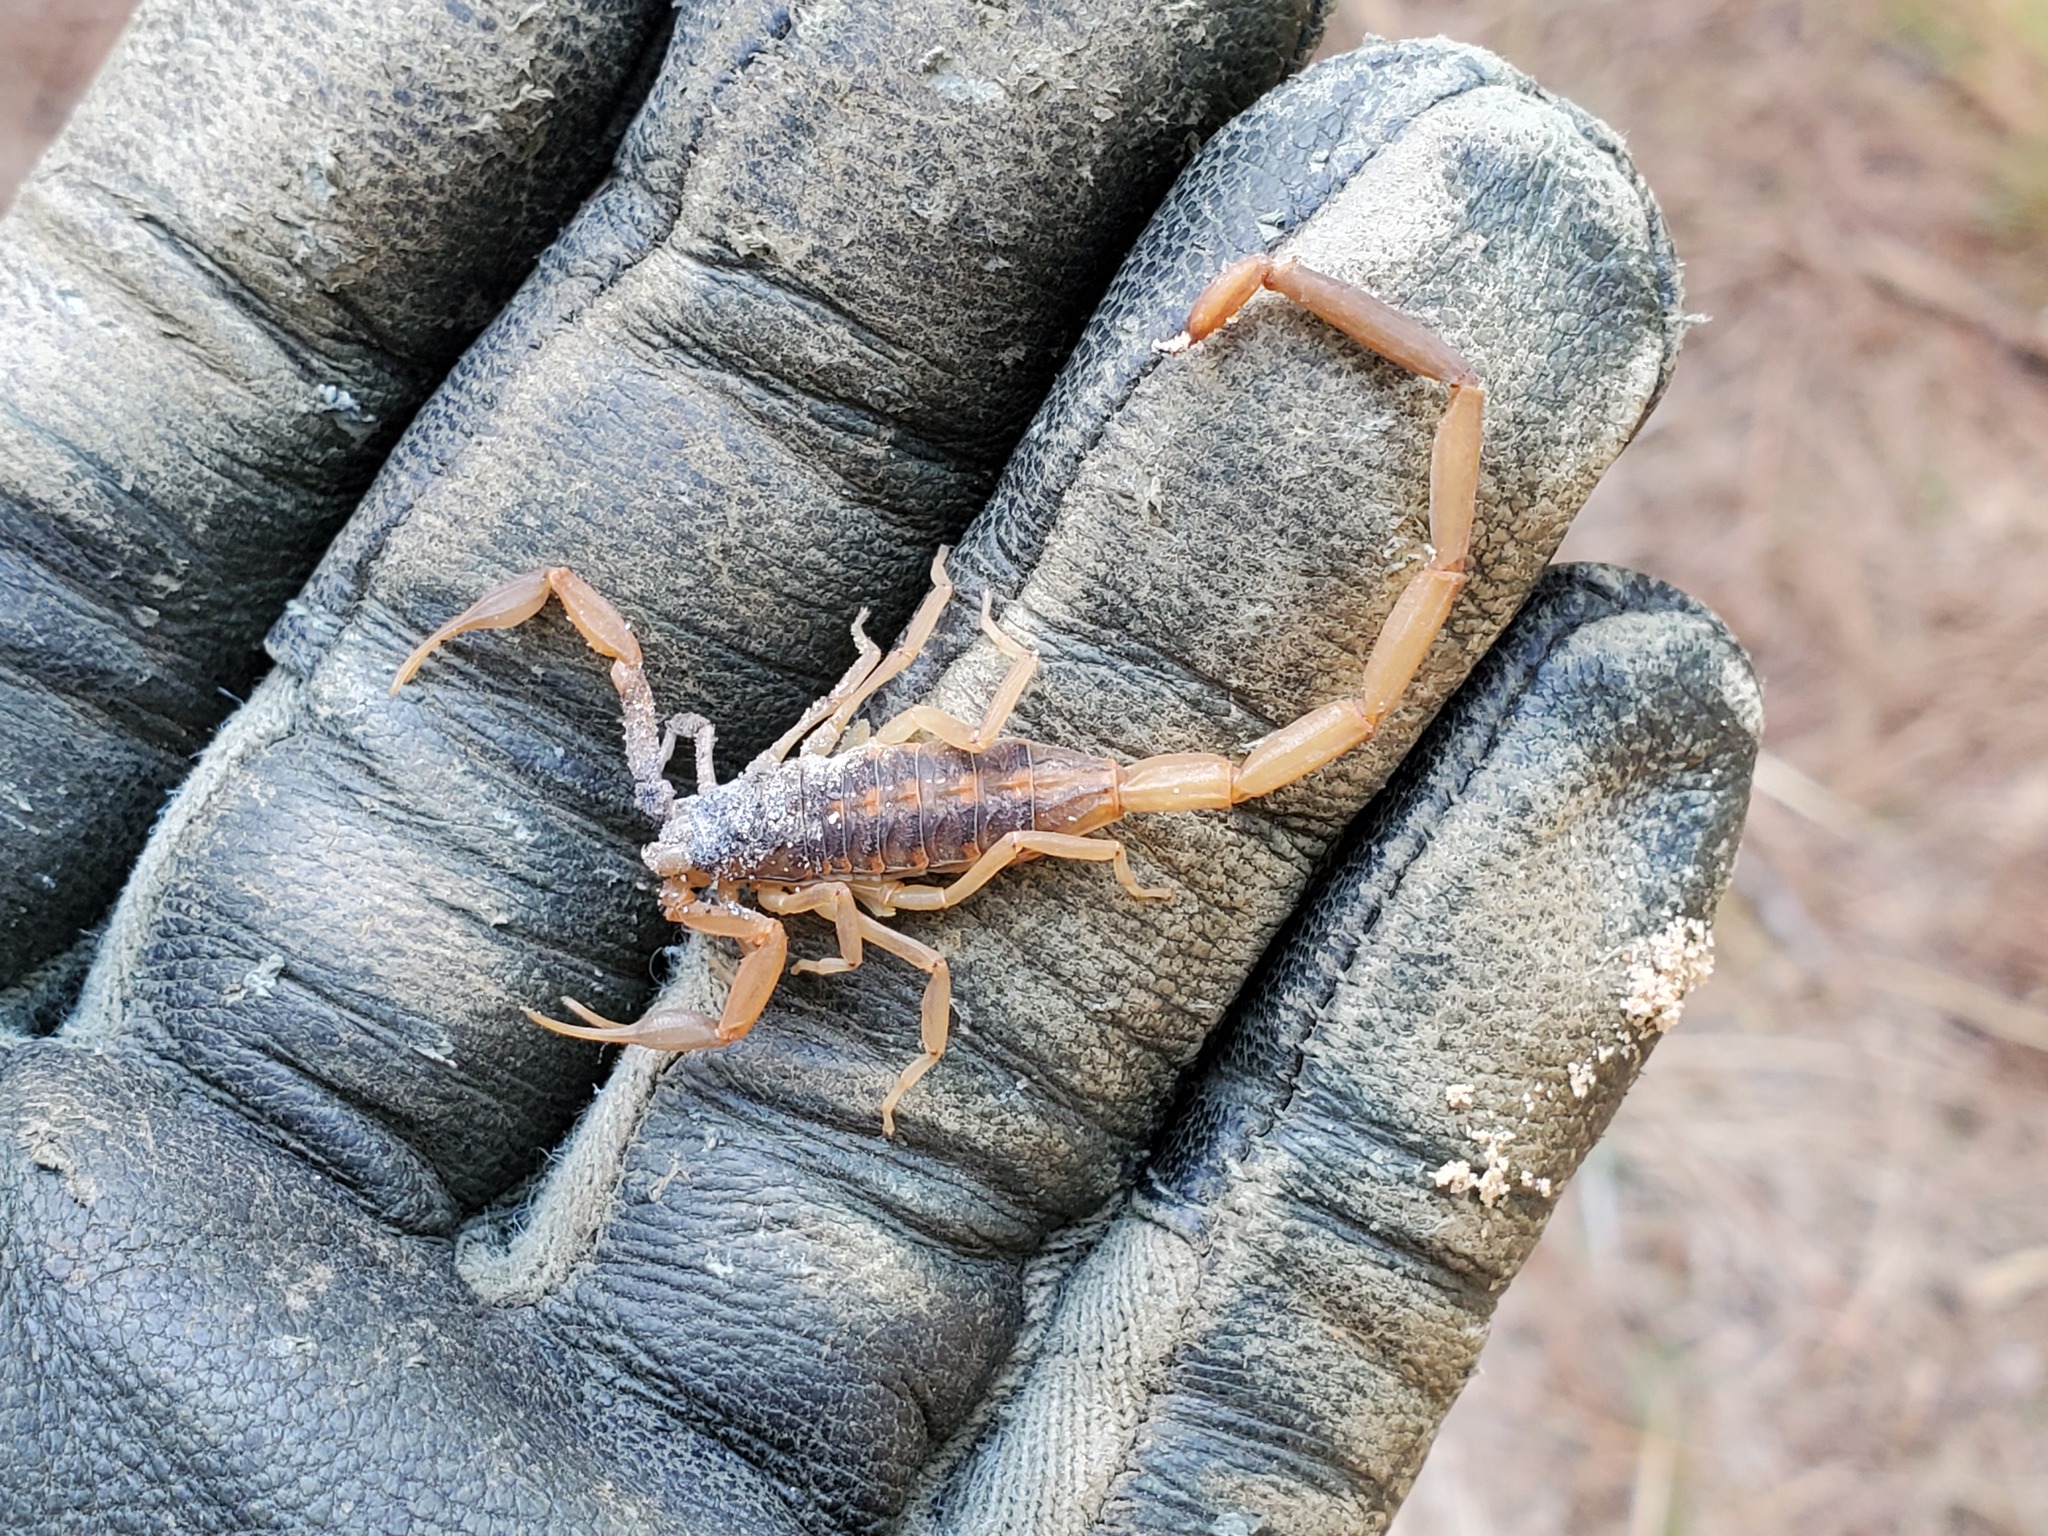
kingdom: Animalia
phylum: Arthropoda
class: Arachnida
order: Scorpiones
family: Buthidae
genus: Centruroides
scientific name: Centruroides vittatus
